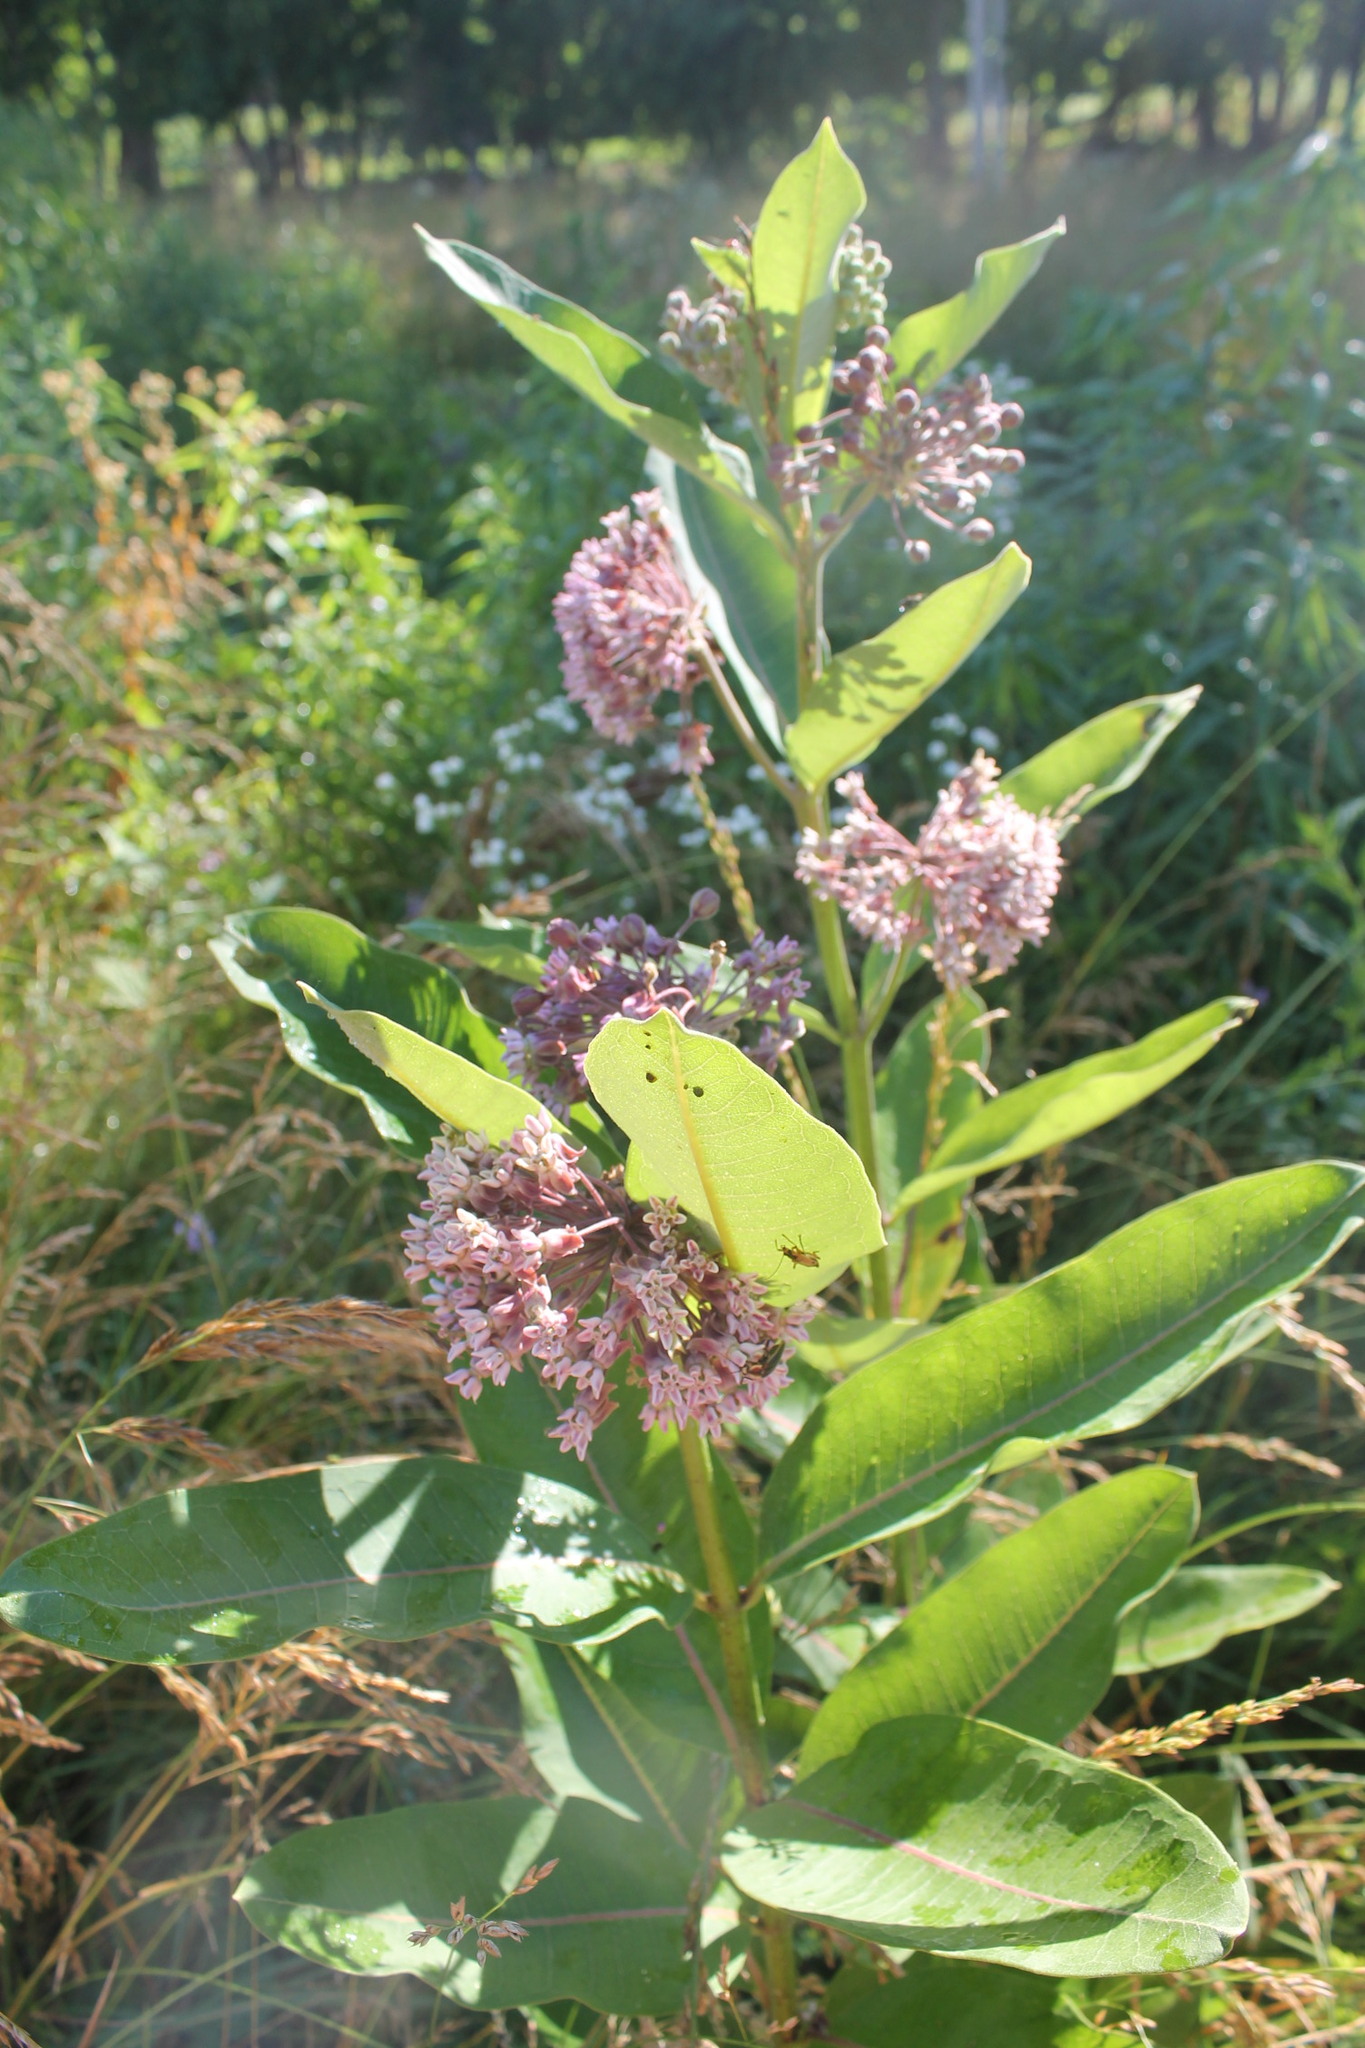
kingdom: Plantae
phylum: Tracheophyta
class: Magnoliopsida
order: Gentianales
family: Apocynaceae
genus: Asclepias
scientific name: Asclepias syriaca
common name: Common milkweed
